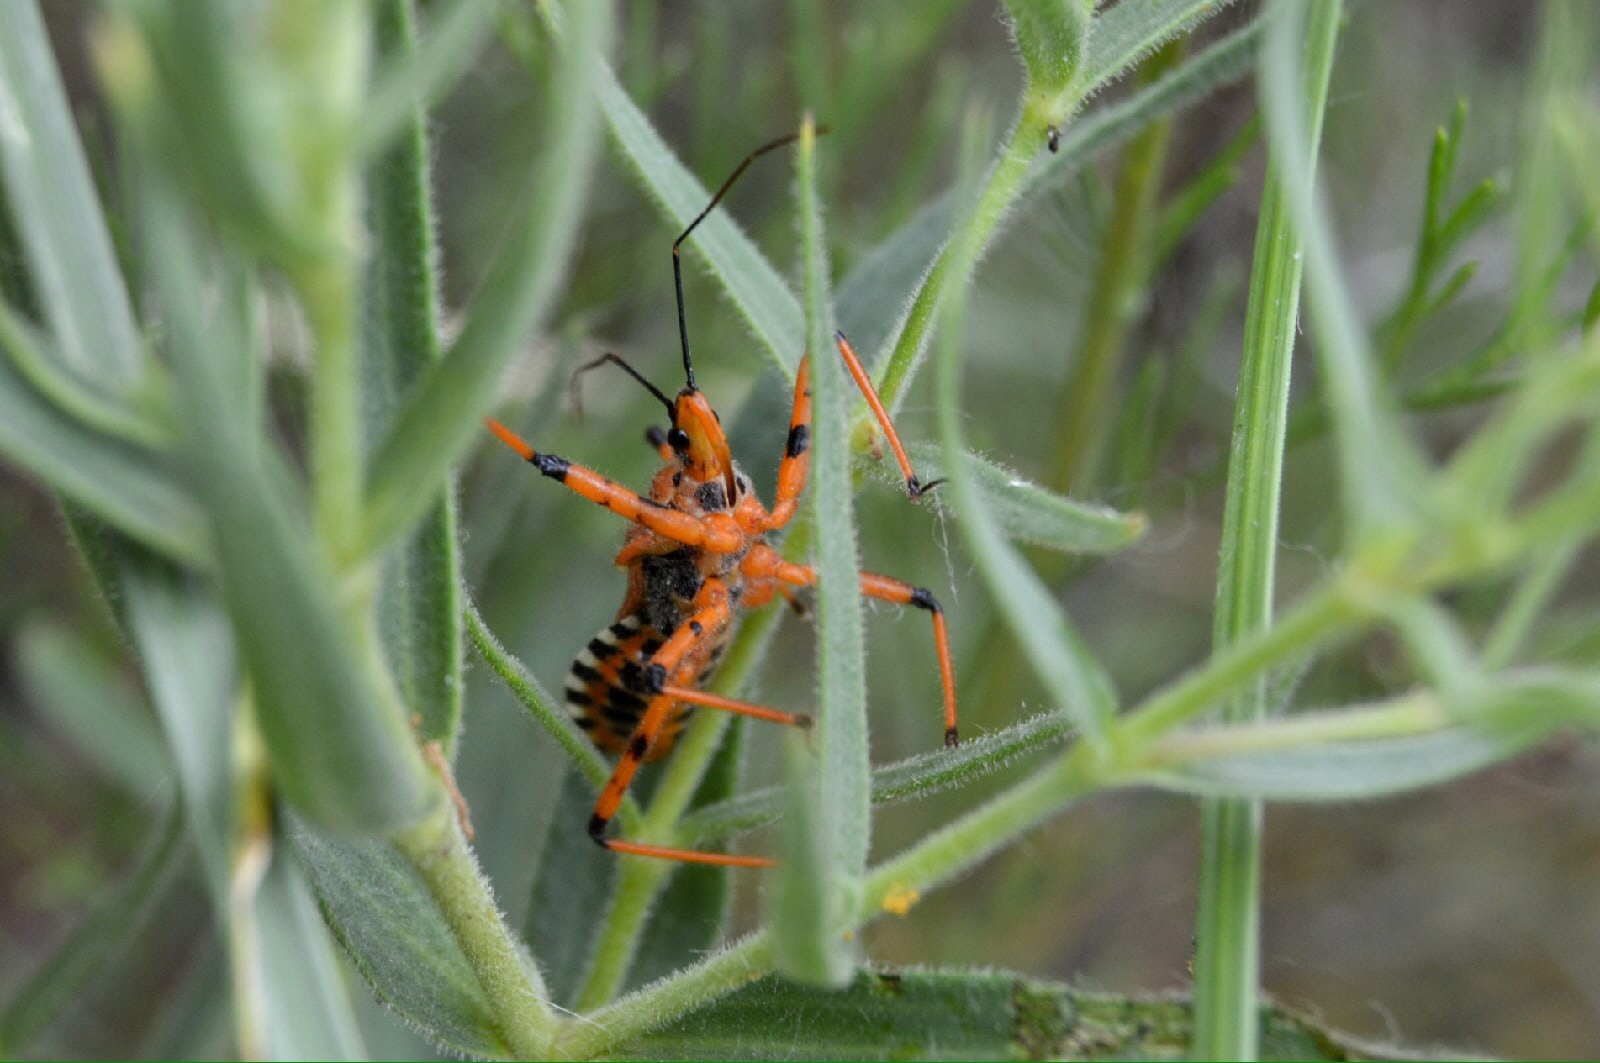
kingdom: Animalia
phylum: Arthropoda
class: Insecta
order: Hemiptera
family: Reduviidae
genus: Rhynocoris
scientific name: Rhynocoris iracundus
